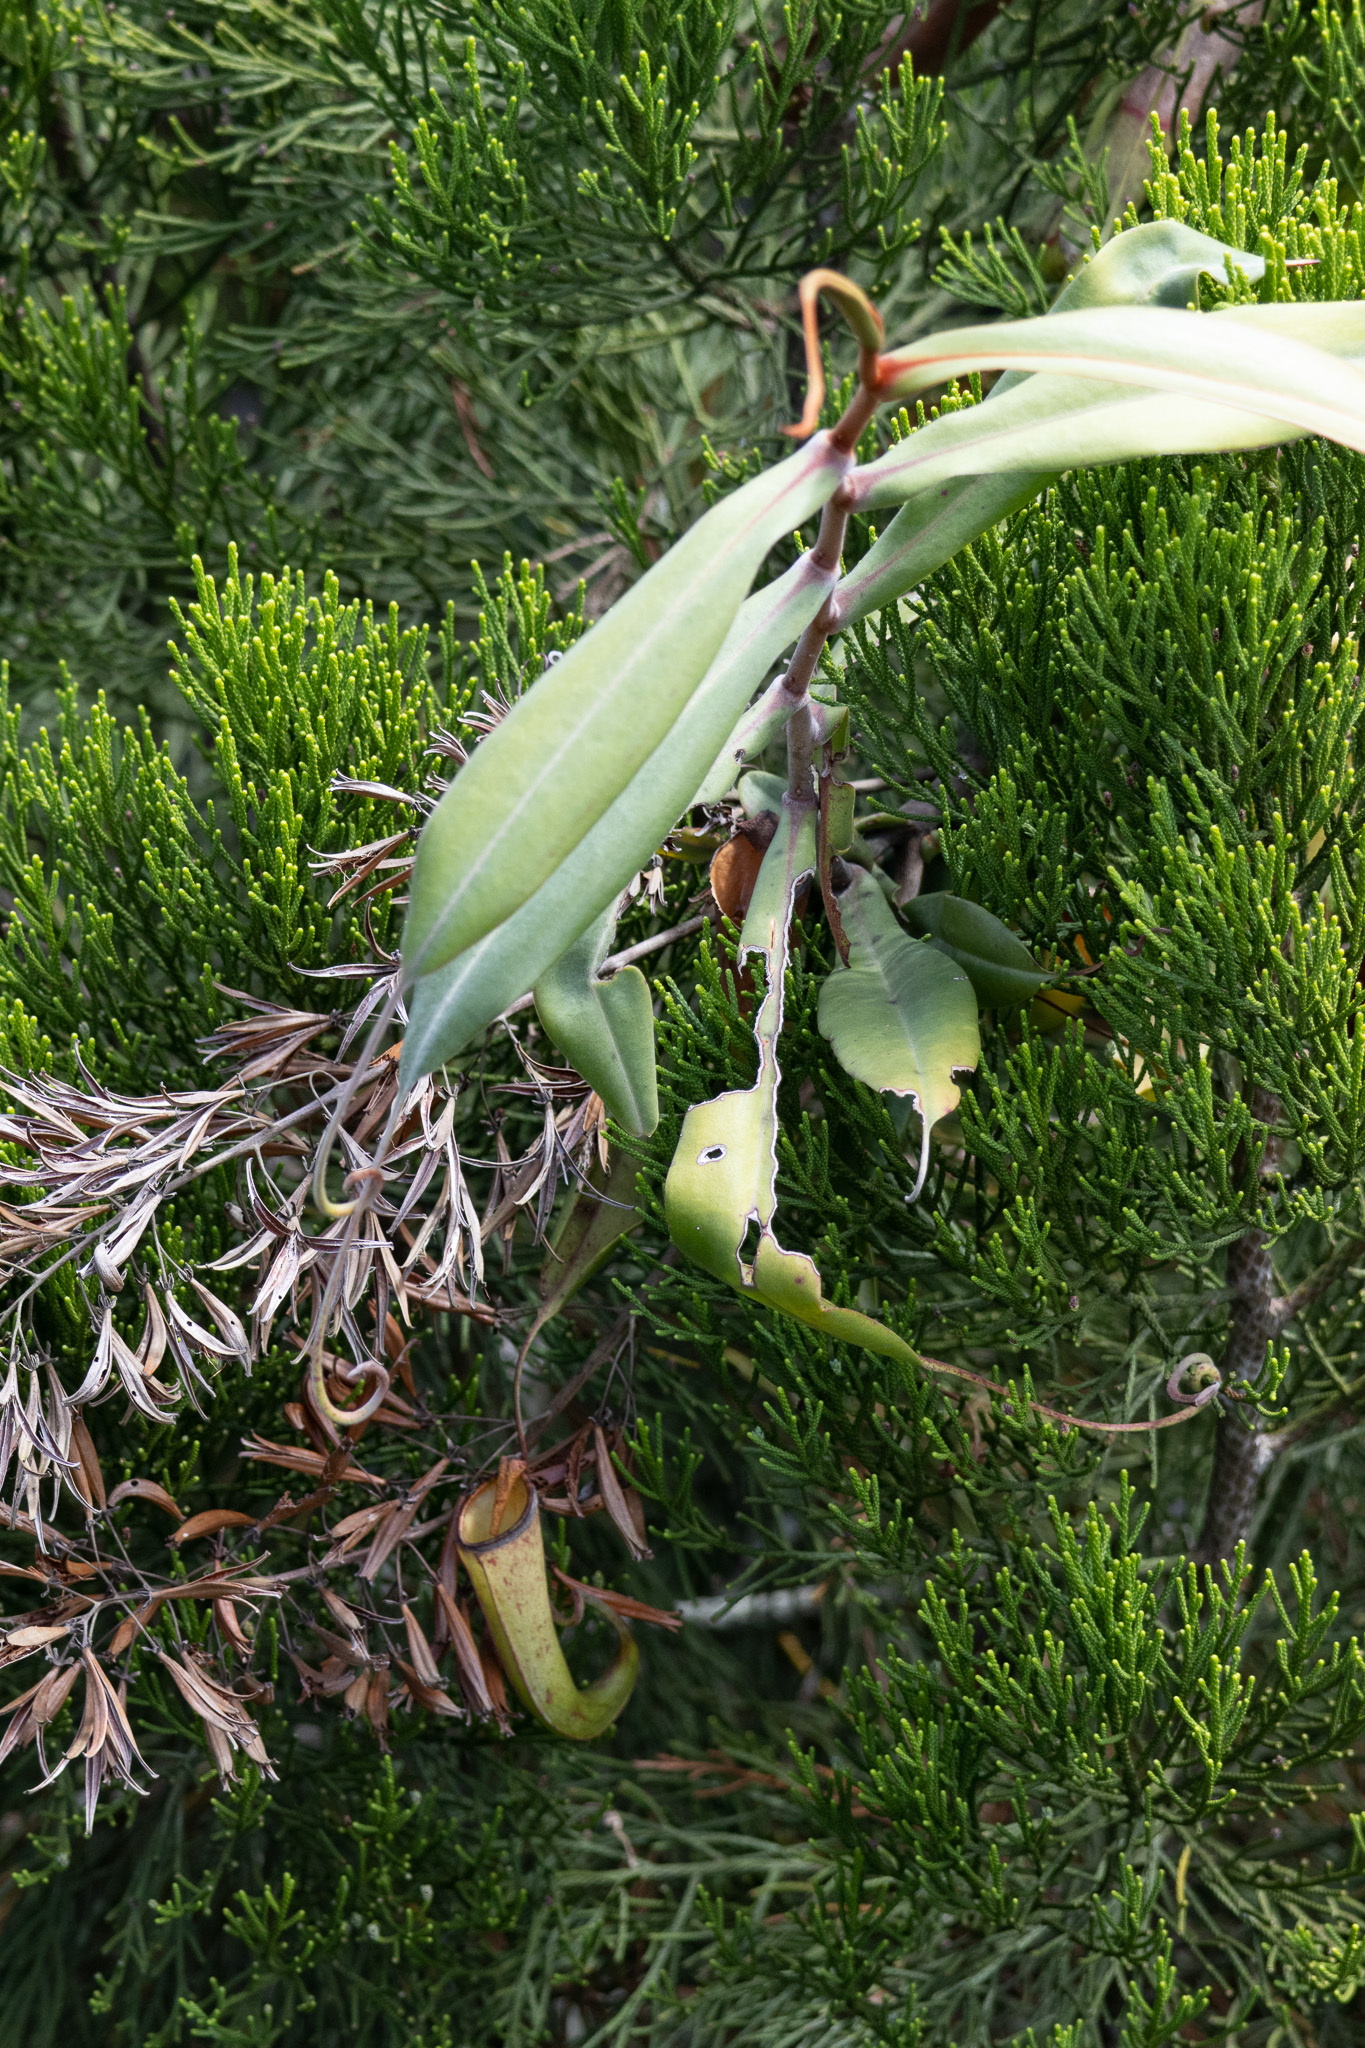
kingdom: Plantae
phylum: Tracheophyta
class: Magnoliopsida
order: Caryophyllales
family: Nepenthaceae
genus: Nepenthes
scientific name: Nepenthes albomarginata
